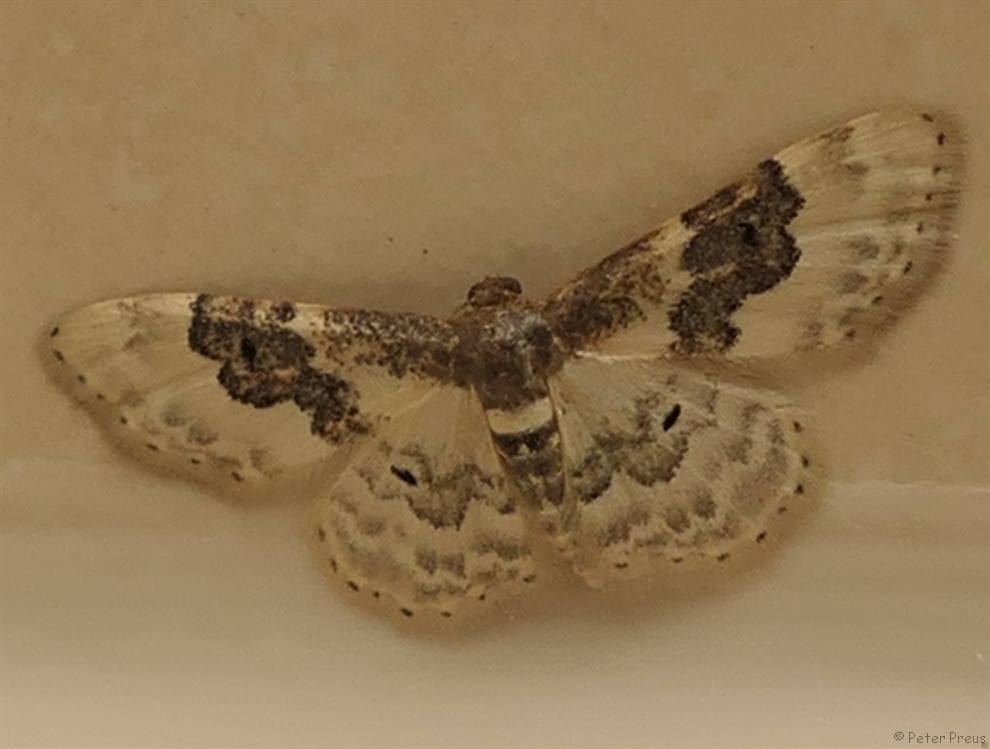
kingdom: Animalia
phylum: Arthropoda
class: Insecta
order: Lepidoptera
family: Geometridae
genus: Idaea
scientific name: Idaea rusticata
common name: Least carpet
